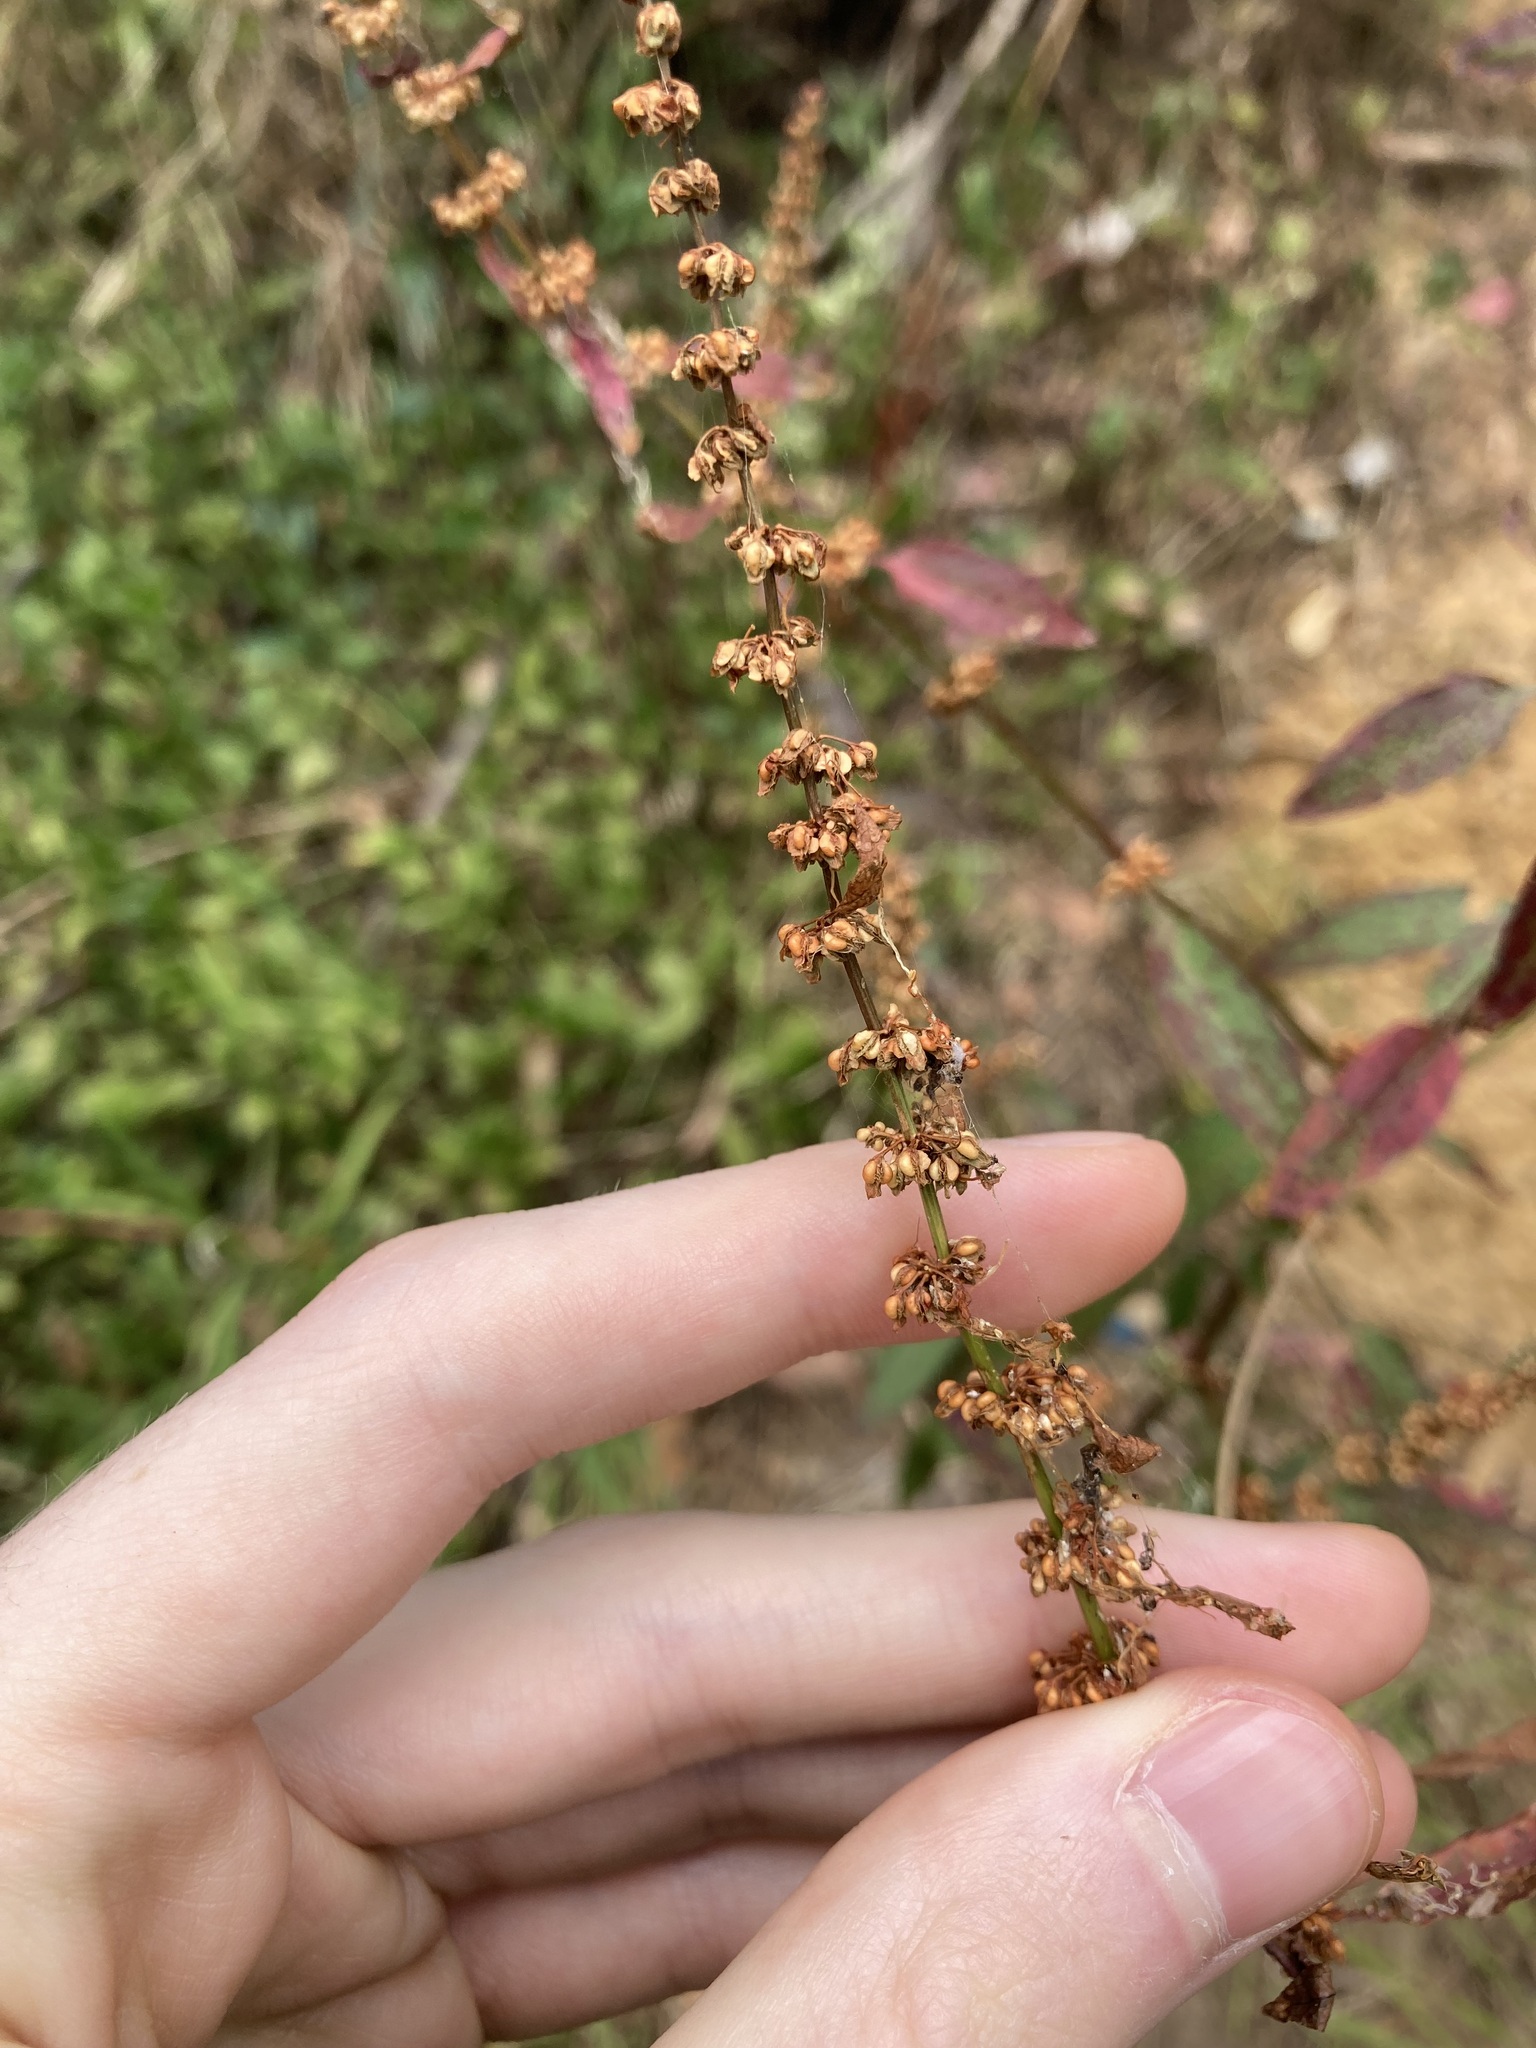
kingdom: Plantae
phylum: Tracheophyta
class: Magnoliopsida
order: Caryophyllales
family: Polygonaceae
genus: Rumex
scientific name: Rumex conglomeratus
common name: Clustered dock
